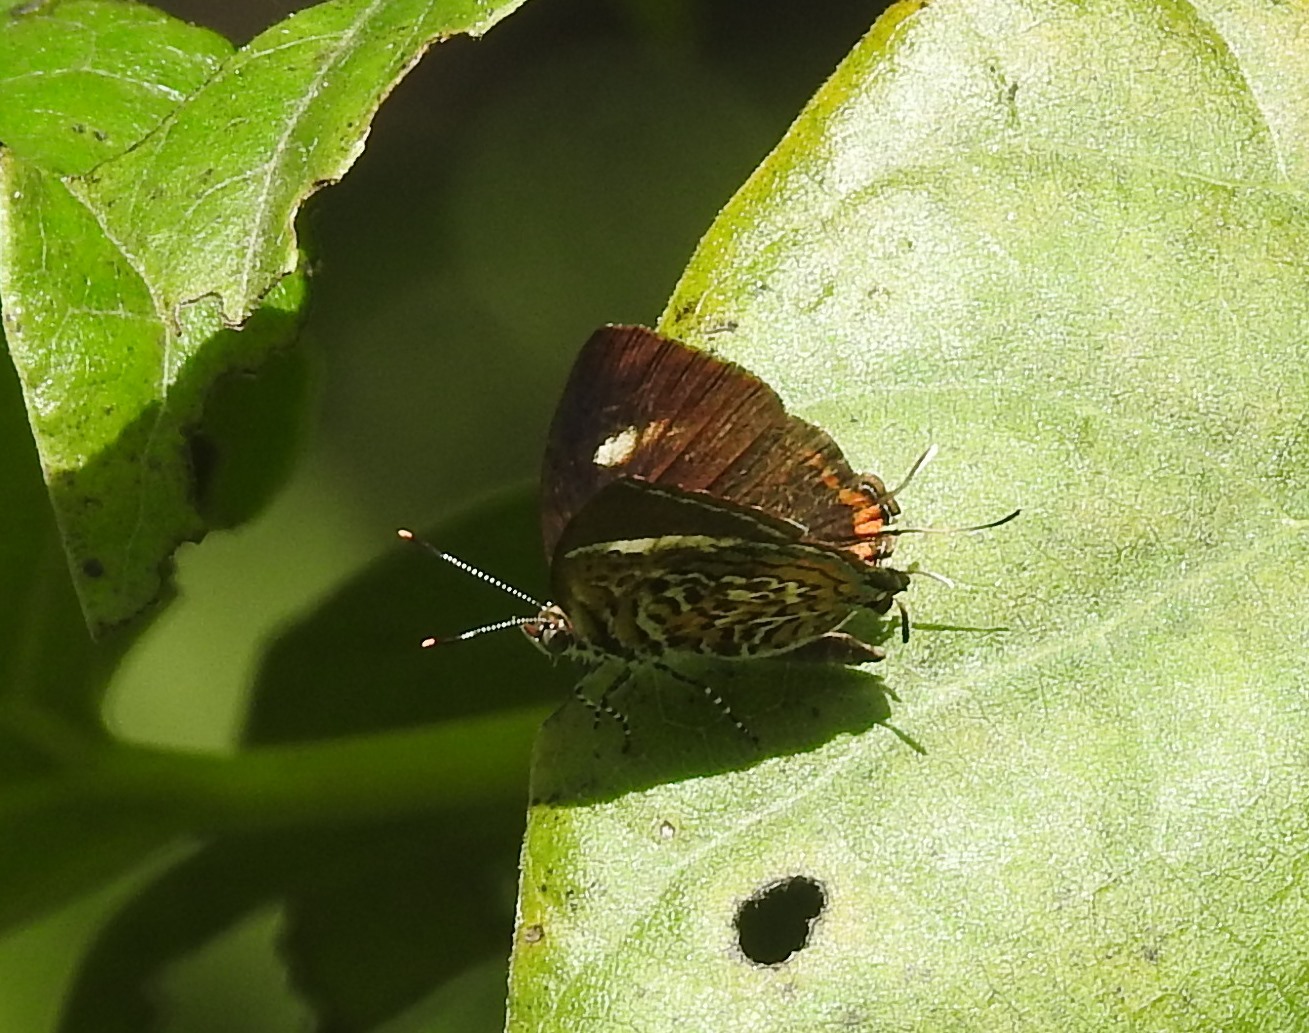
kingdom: Animalia
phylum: Arthropoda
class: Insecta
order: Lepidoptera
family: Lycaenidae
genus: Rathinda
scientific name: Rathinda amor
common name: Monkey puzzle
